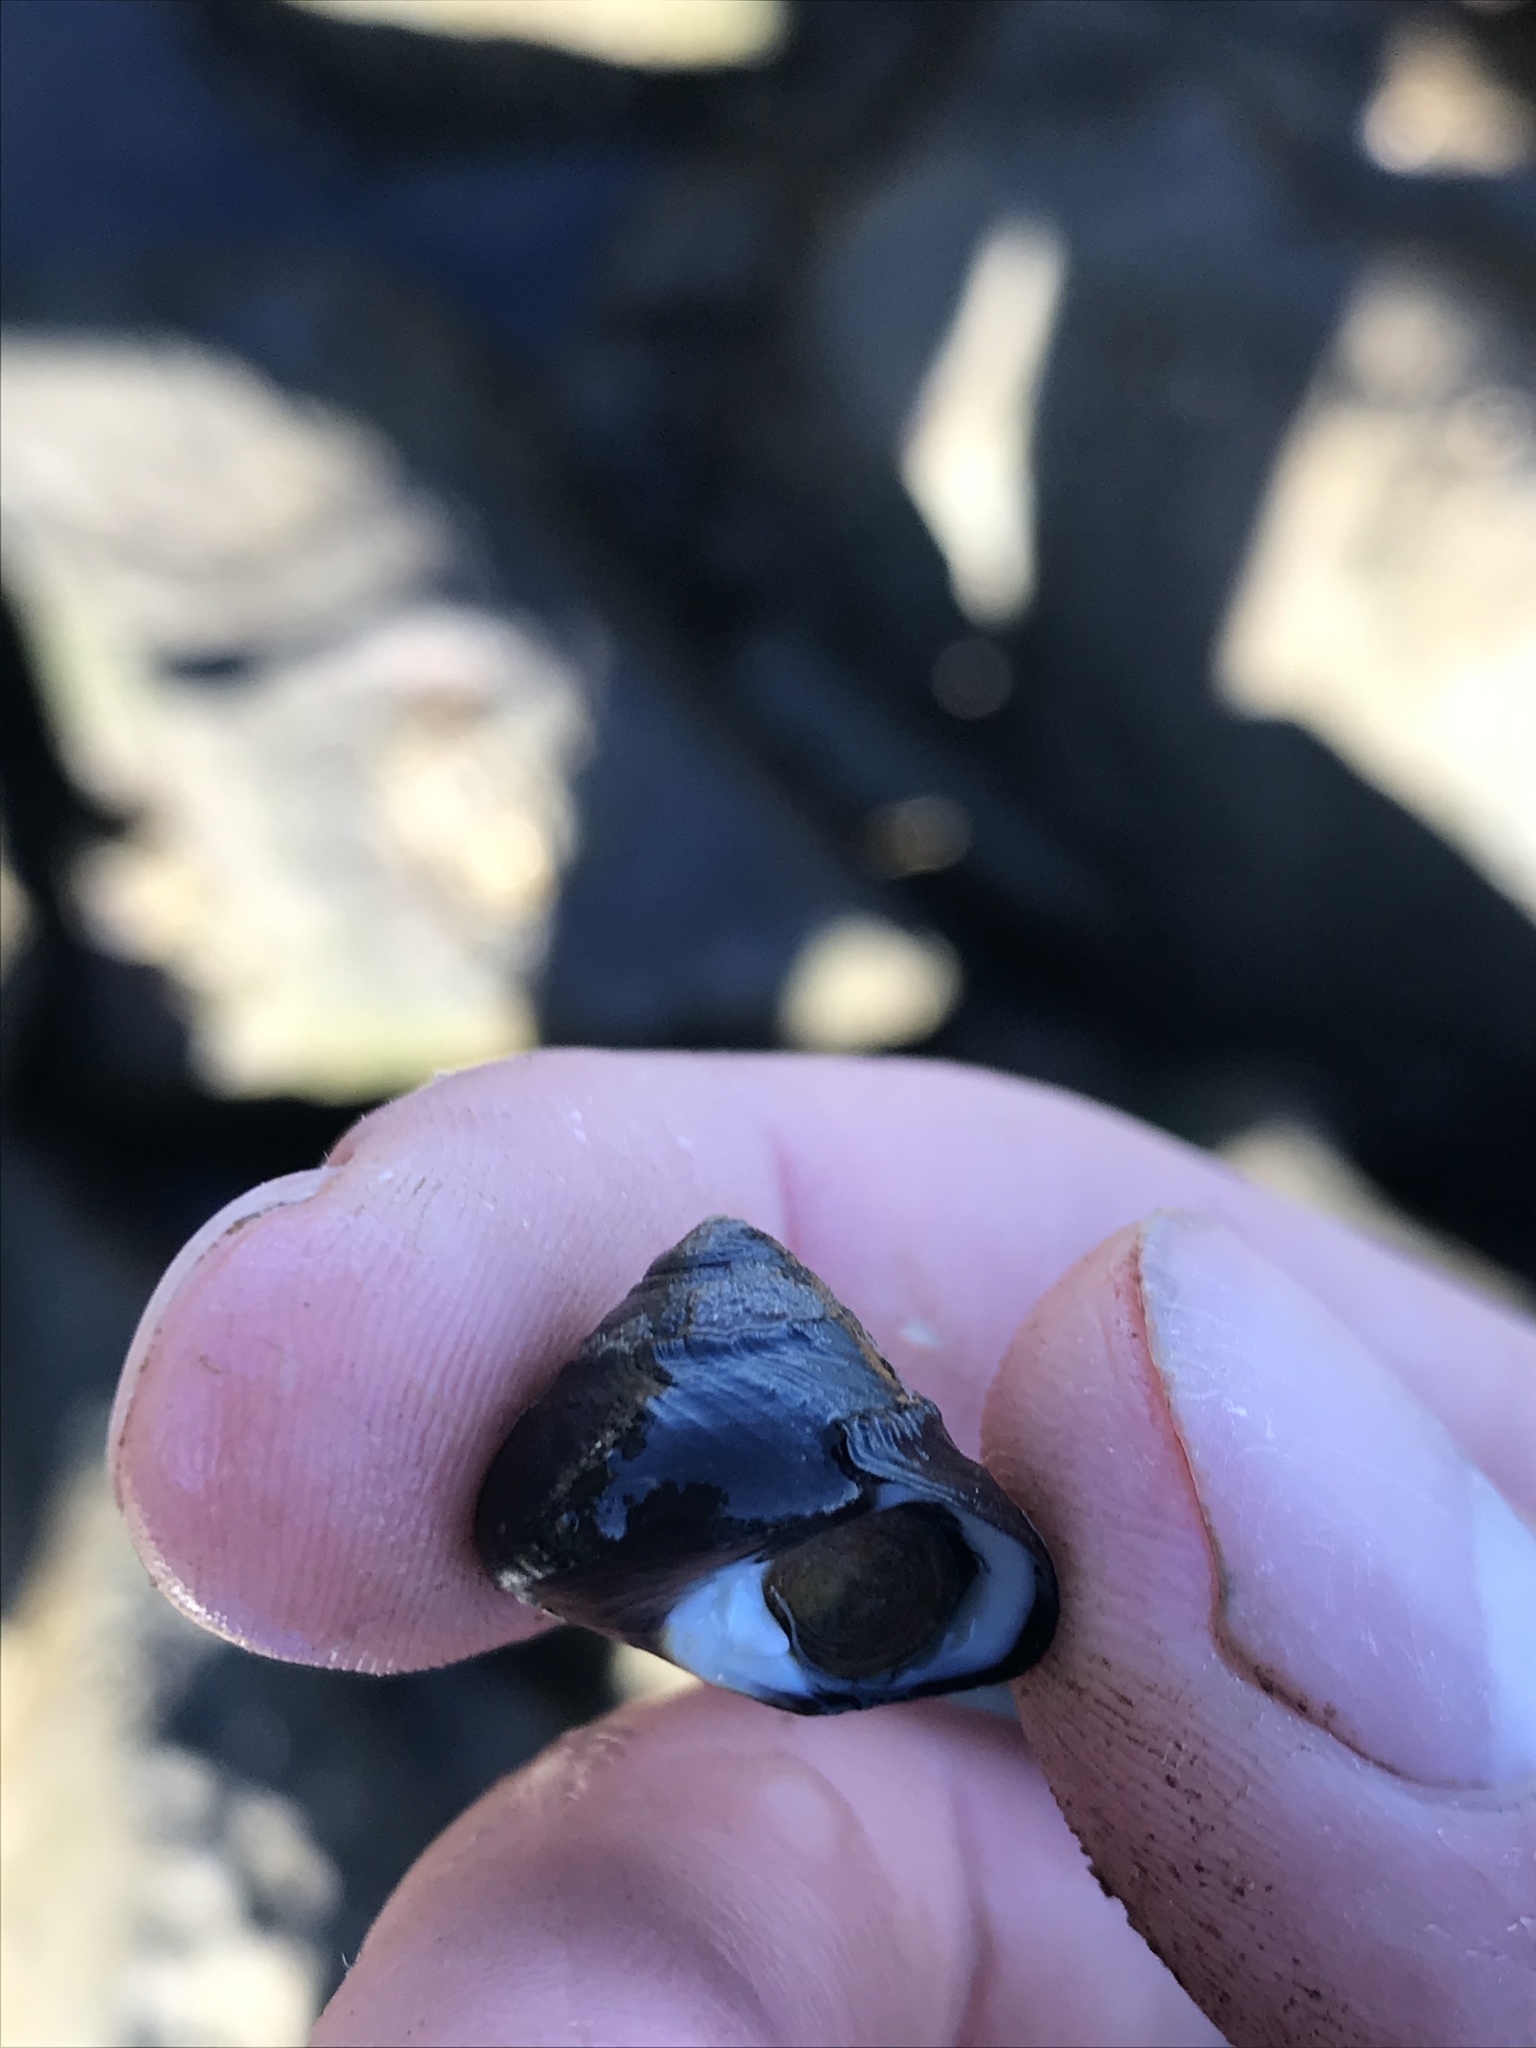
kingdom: Animalia
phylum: Mollusca
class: Gastropoda
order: Trochida
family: Tegulidae
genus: Tegula
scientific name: Tegula funebralis
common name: Black tegula
